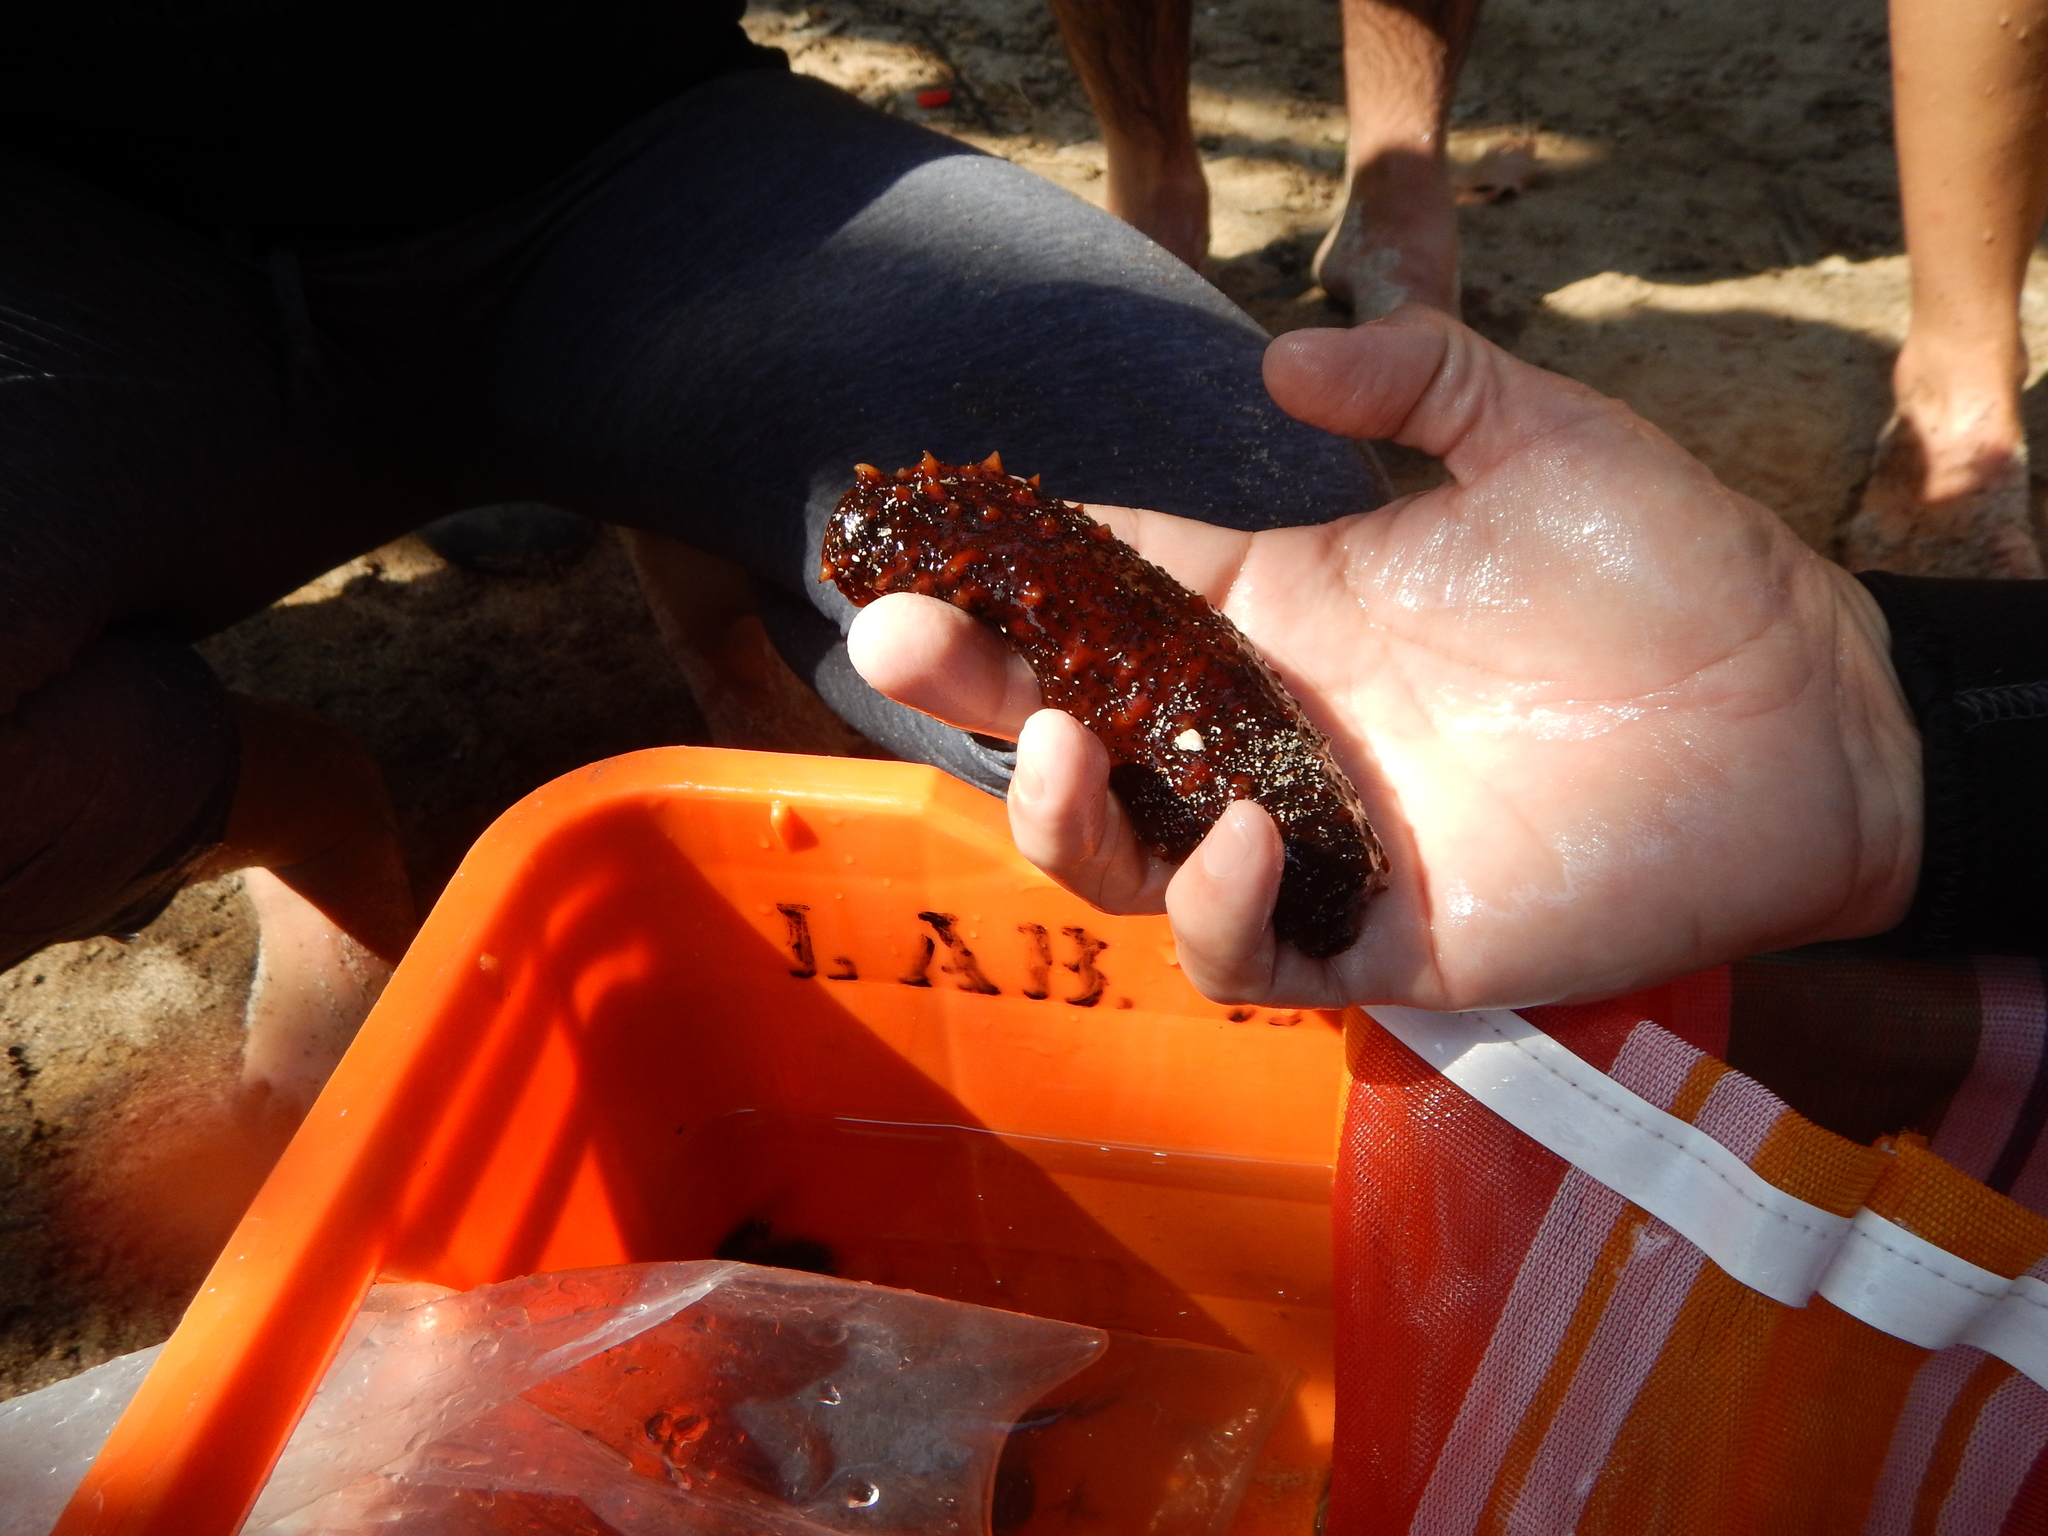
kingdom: Animalia
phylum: Echinodermata
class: Holothuroidea
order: Holothuriida
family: Holothuriidae
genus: Holothuria
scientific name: Holothuria inornata
